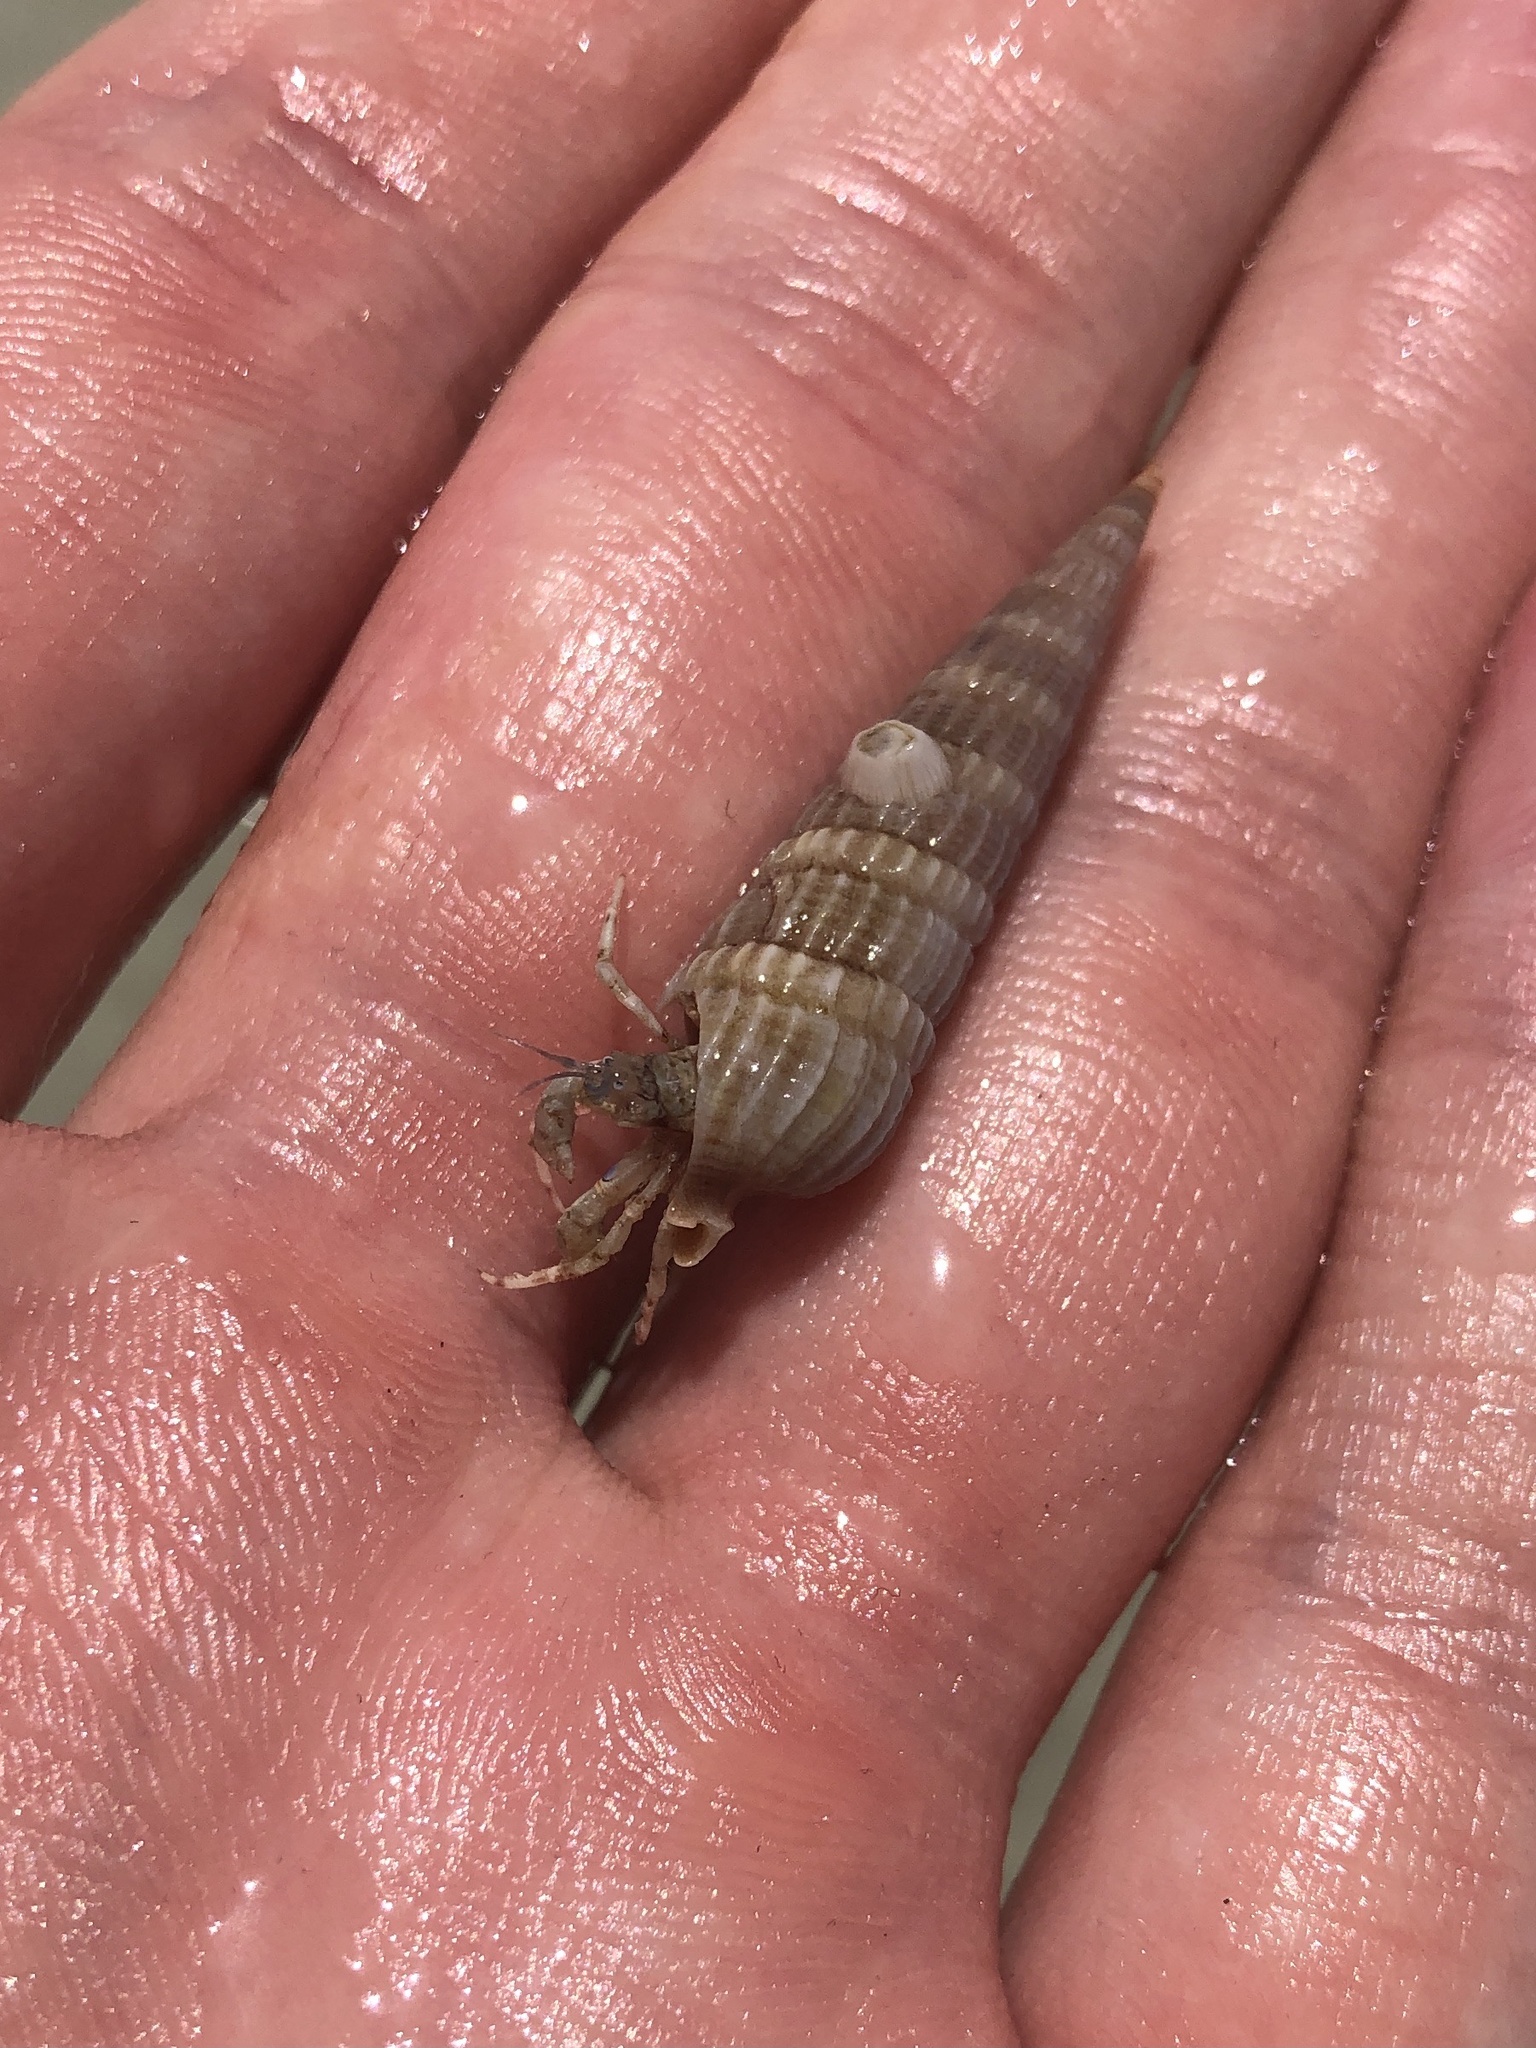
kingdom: Animalia
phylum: Arthropoda
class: Malacostraca
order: Decapoda
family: Diogenidae
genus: Areopaguristes
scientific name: Areopaguristes hummi
